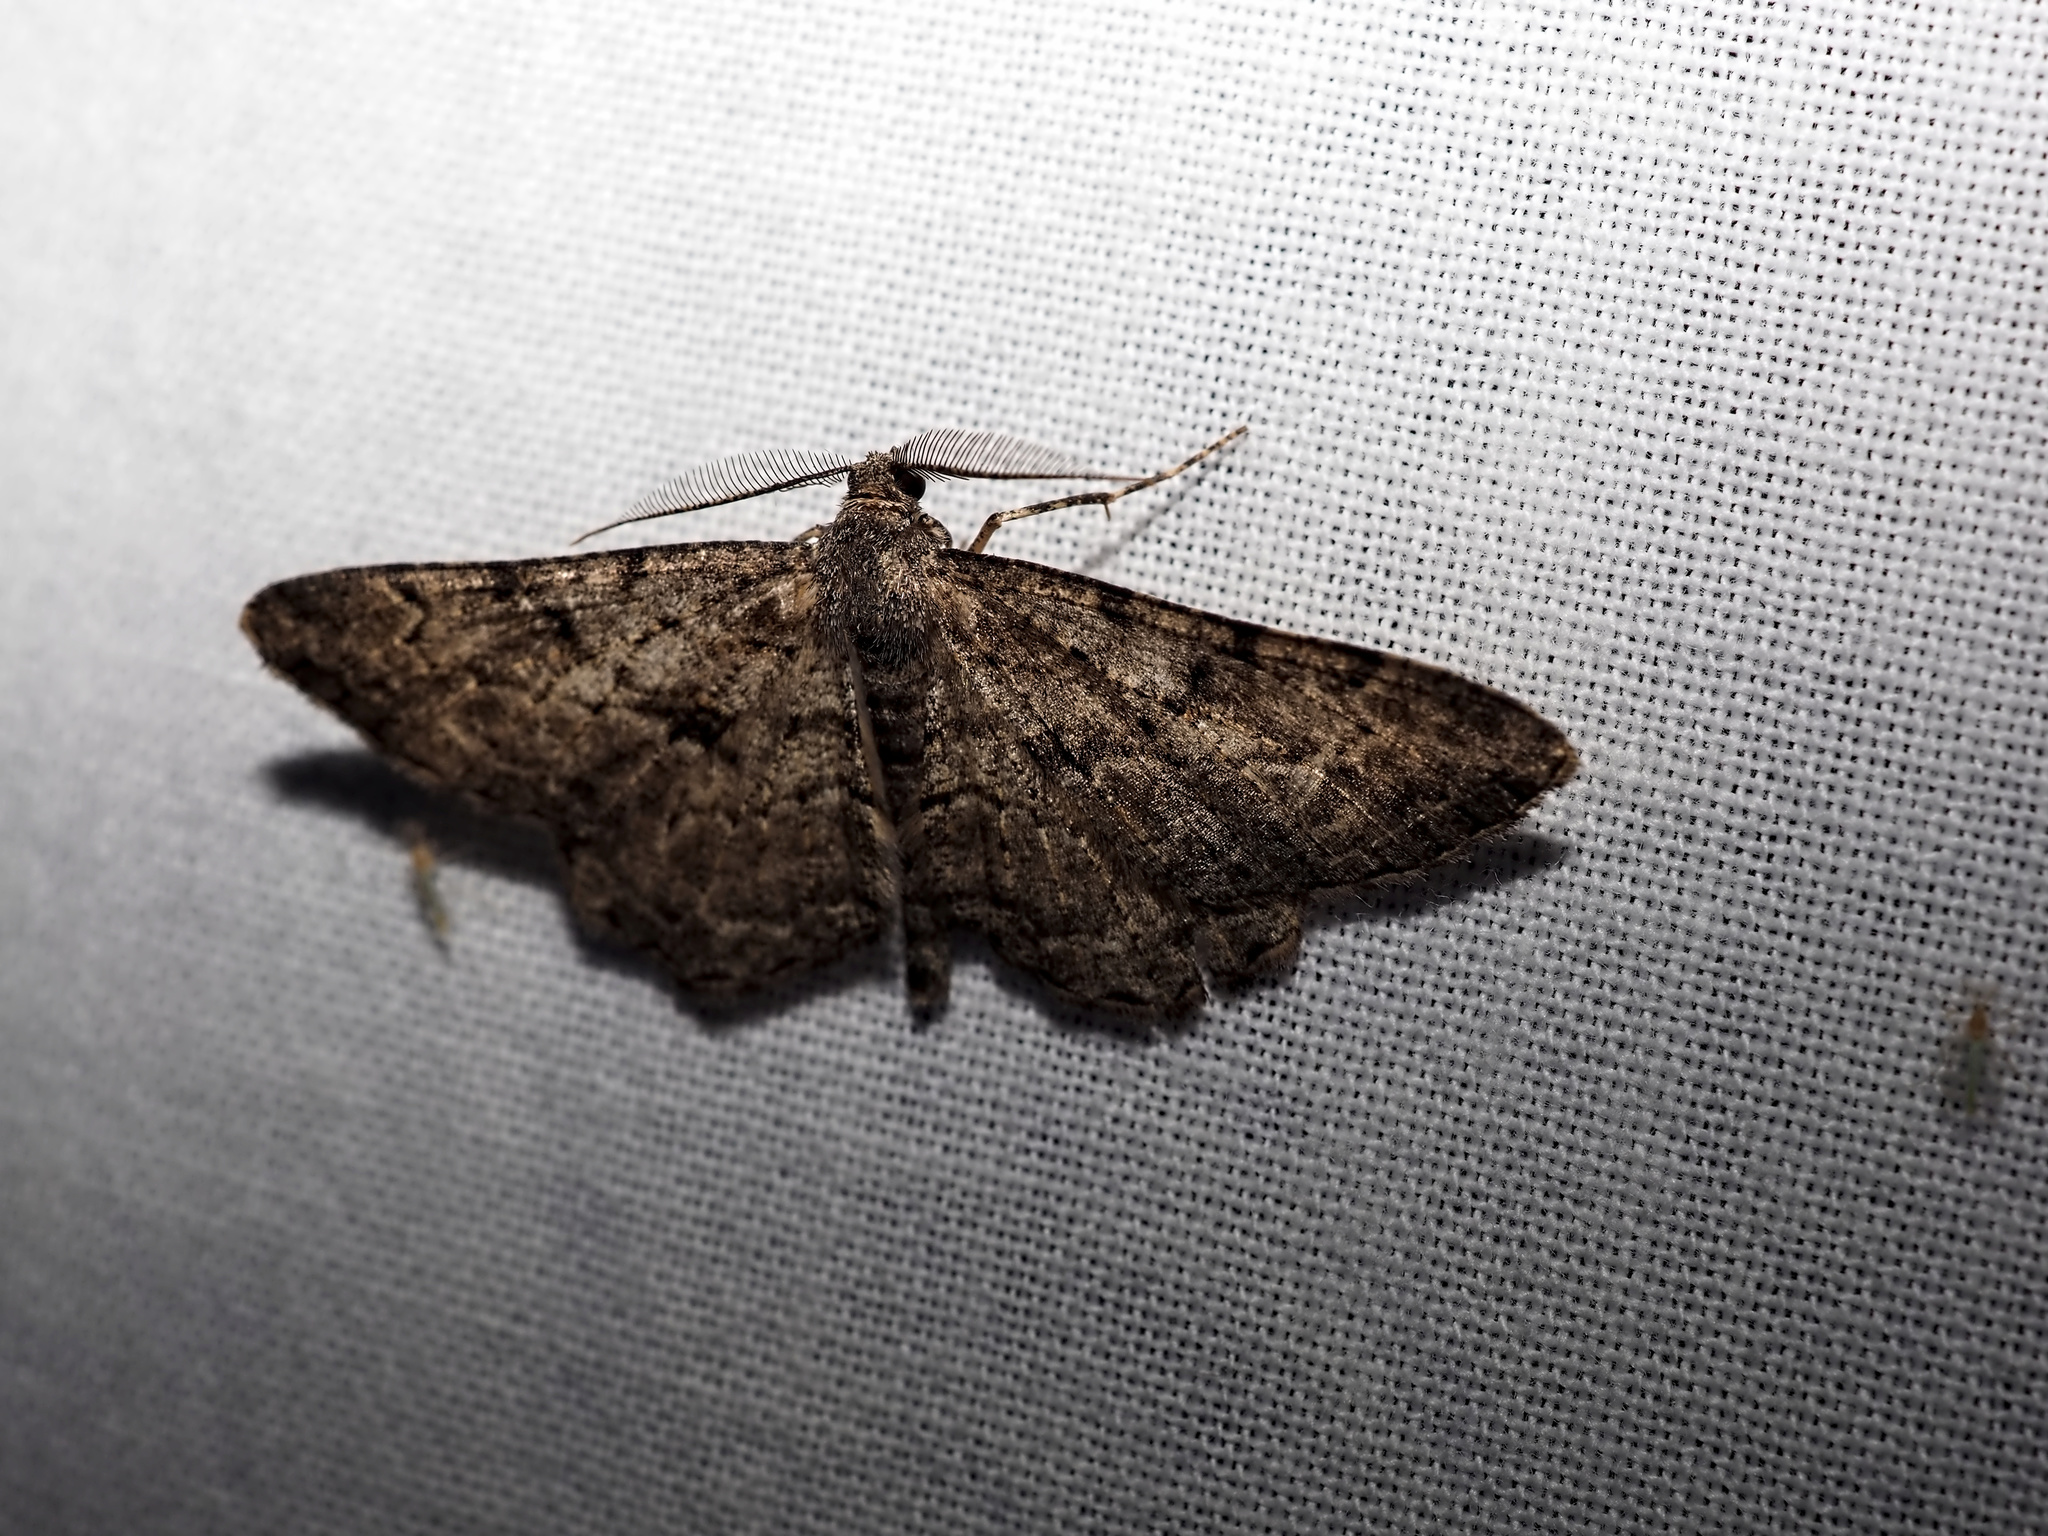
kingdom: Animalia
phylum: Arthropoda
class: Insecta
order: Lepidoptera
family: Geometridae
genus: Peribatodes
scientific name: Peribatodes rhomboidaria
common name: Willow beauty
